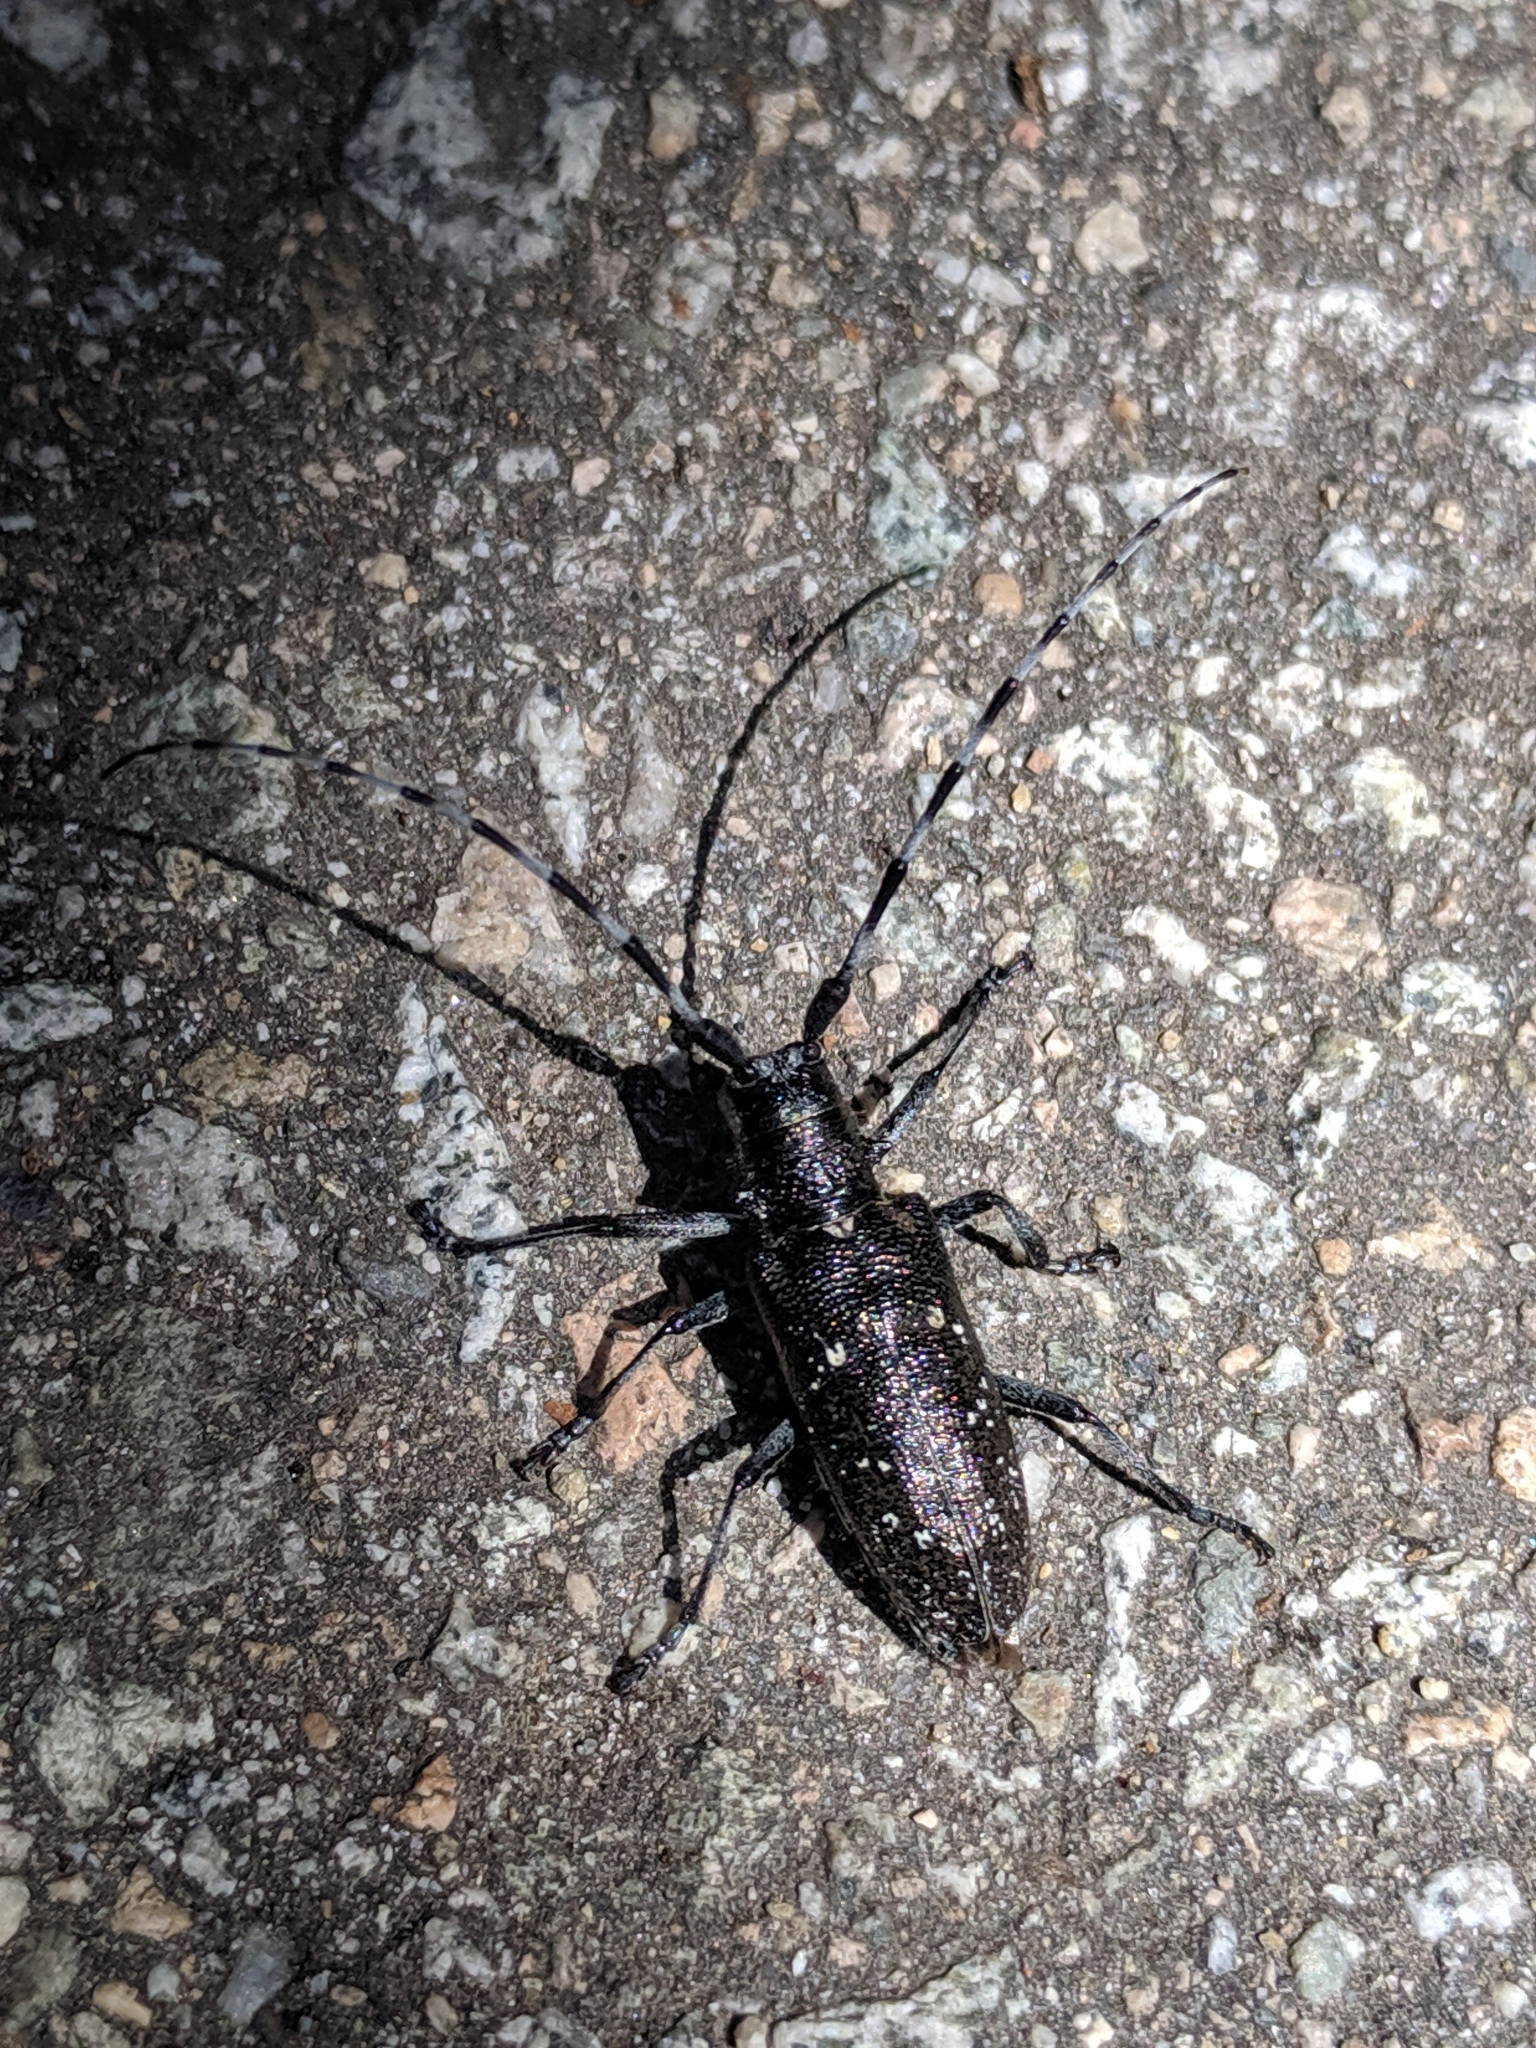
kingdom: Animalia
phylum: Arthropoda
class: Insecta
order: Coleoptera
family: Cerambycidae
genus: Monochamus
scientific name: Monochamus scutellatus
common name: White-spotted sawyer beetle
